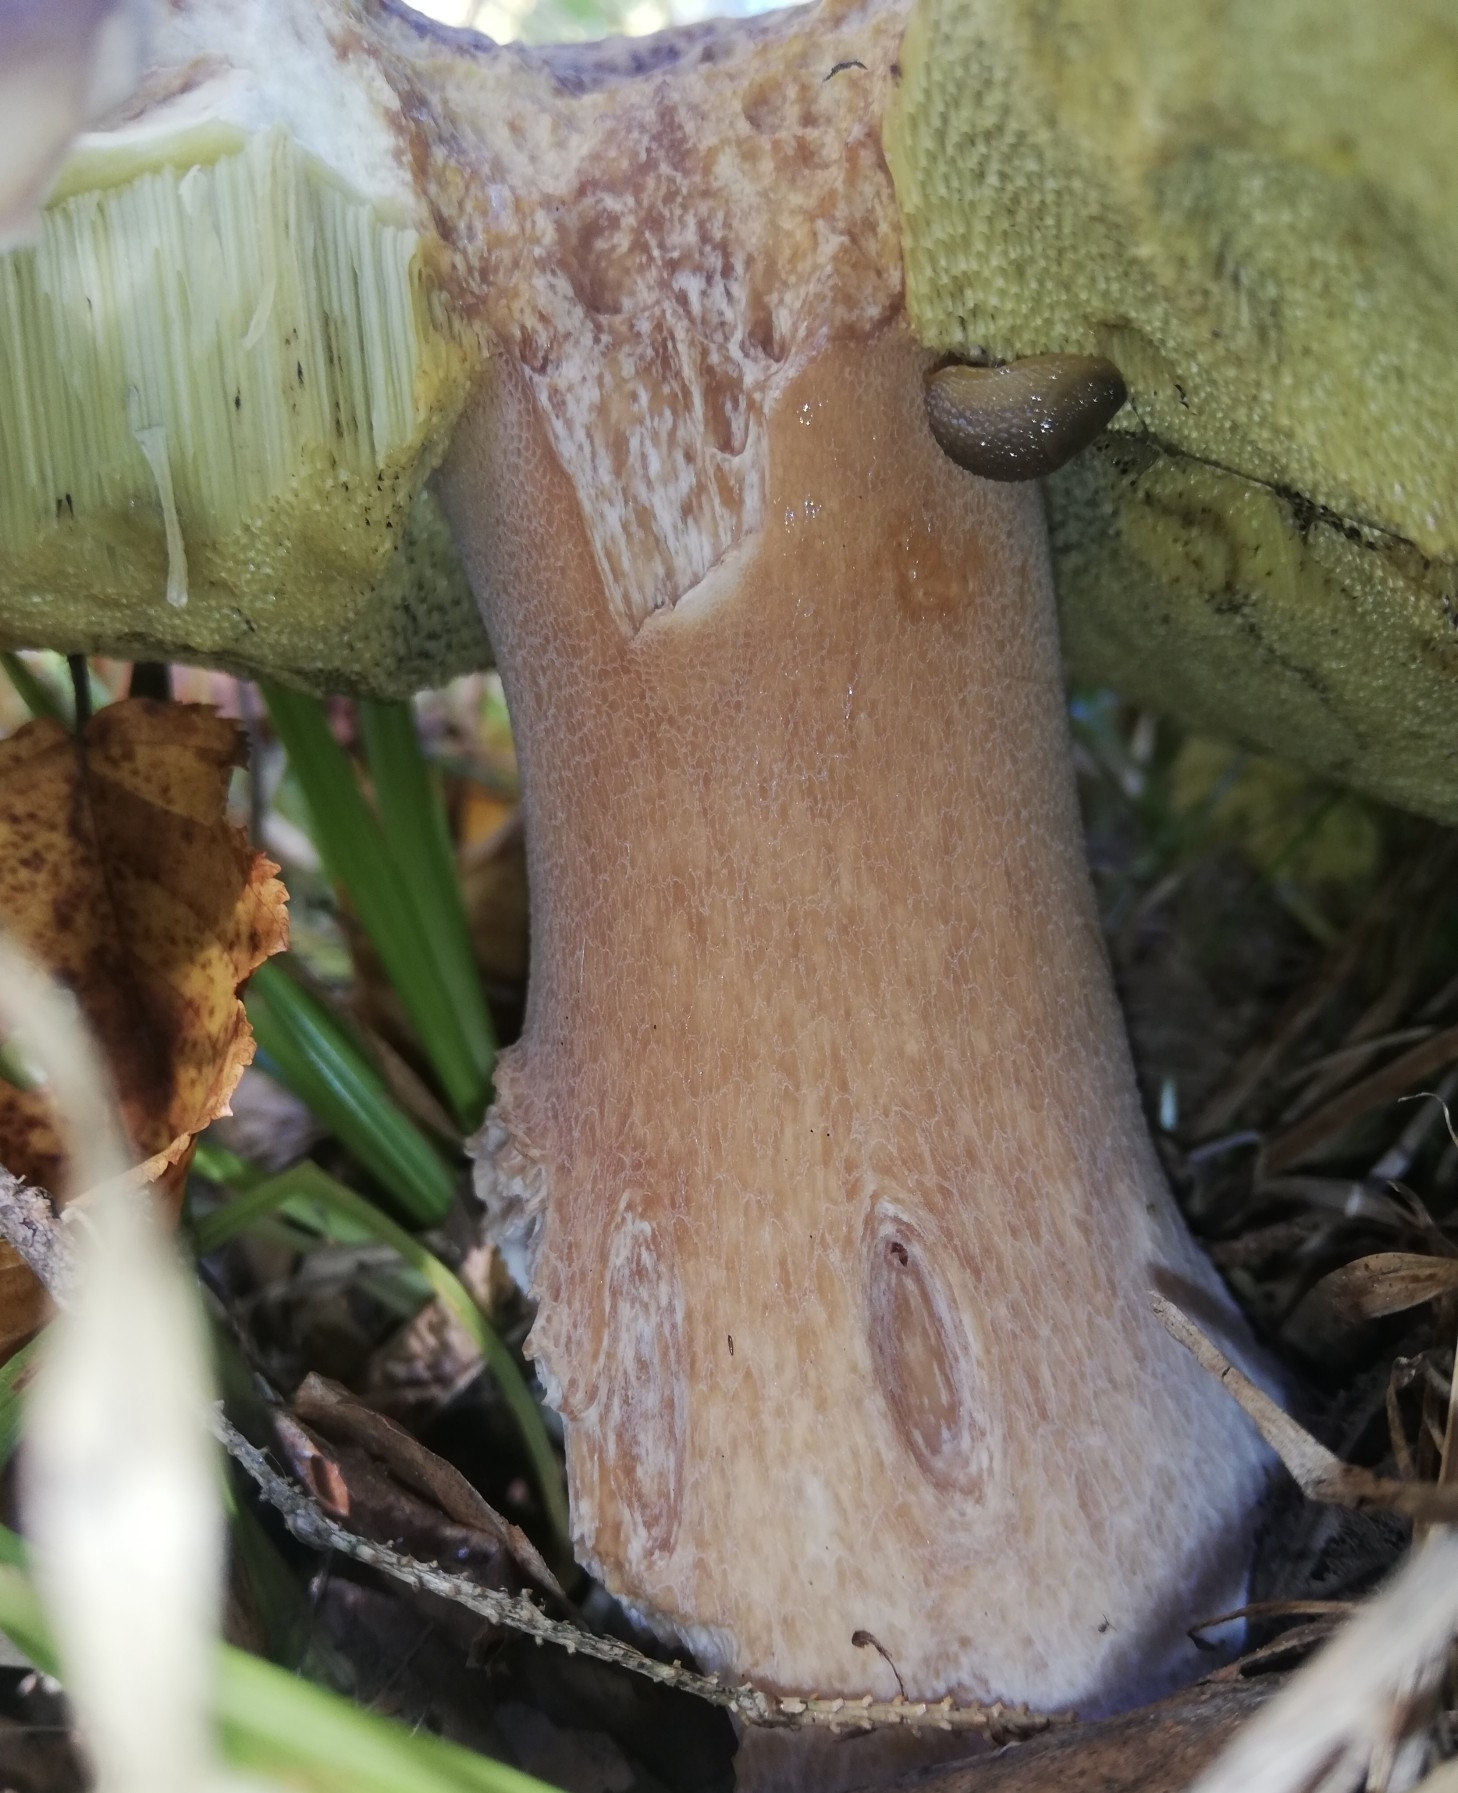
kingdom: Animalia
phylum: Mollusca
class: Gastropoda
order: Stylommatophora
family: Arionidae
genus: Arion
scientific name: Arion intermedius
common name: Hedgehog slug
